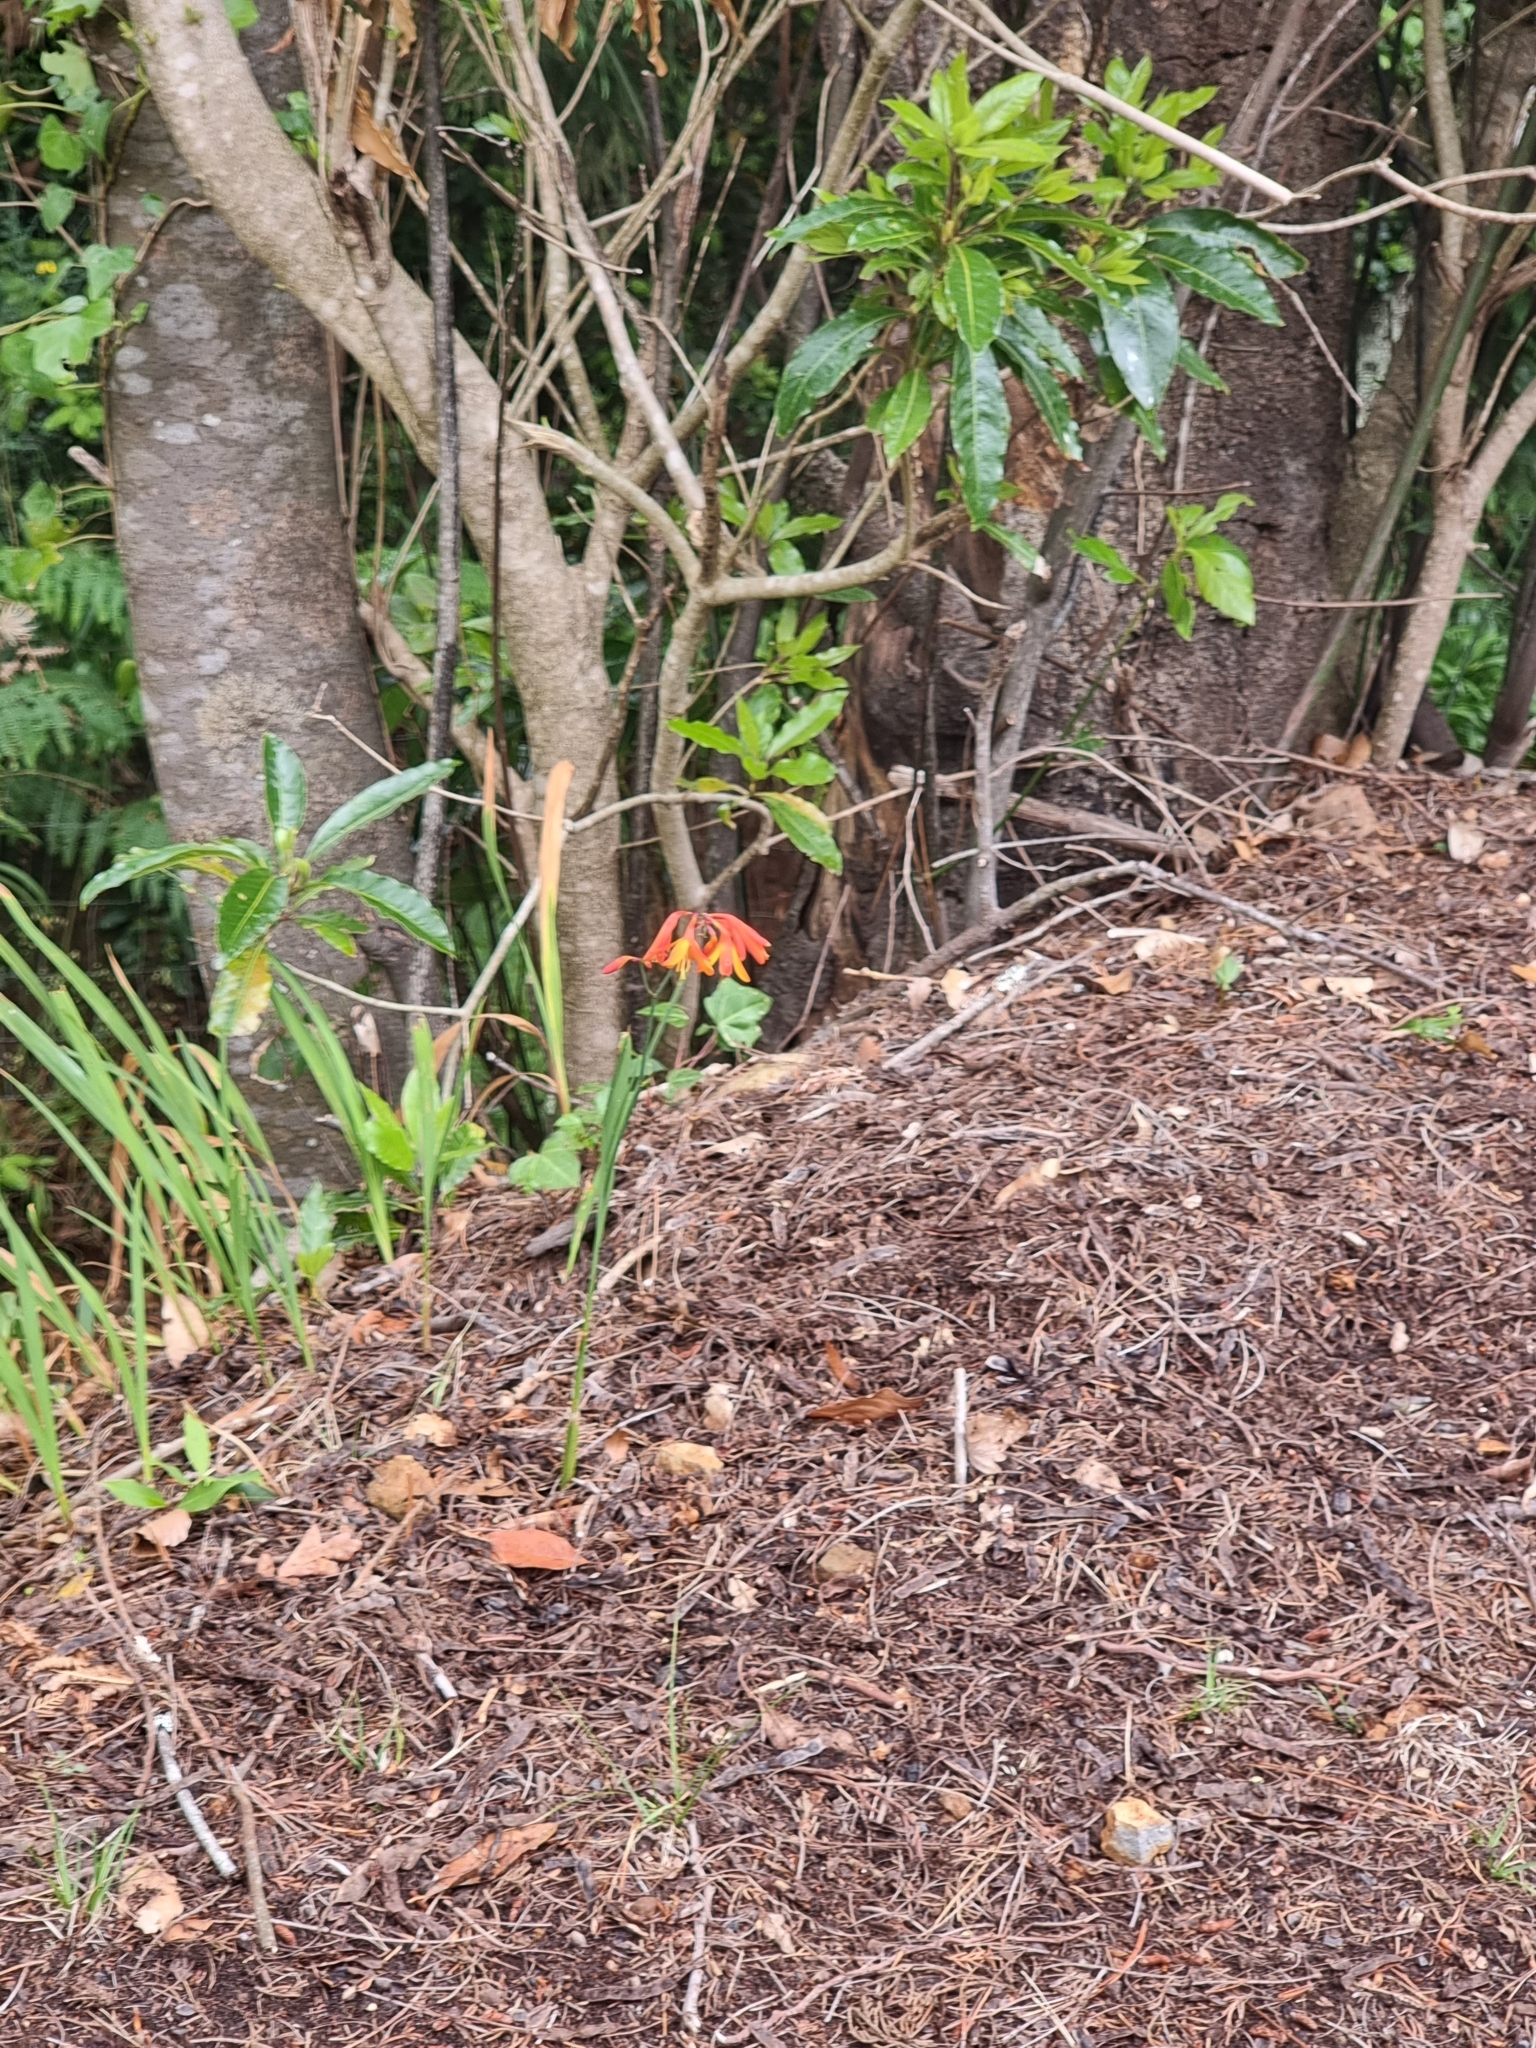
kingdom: Plantae
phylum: Tracheophyta
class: Liliopsida
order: Asparagales
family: Iridaceae
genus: Crocosmia
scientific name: Crocosmia crocosmiiflora
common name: Montbretia
